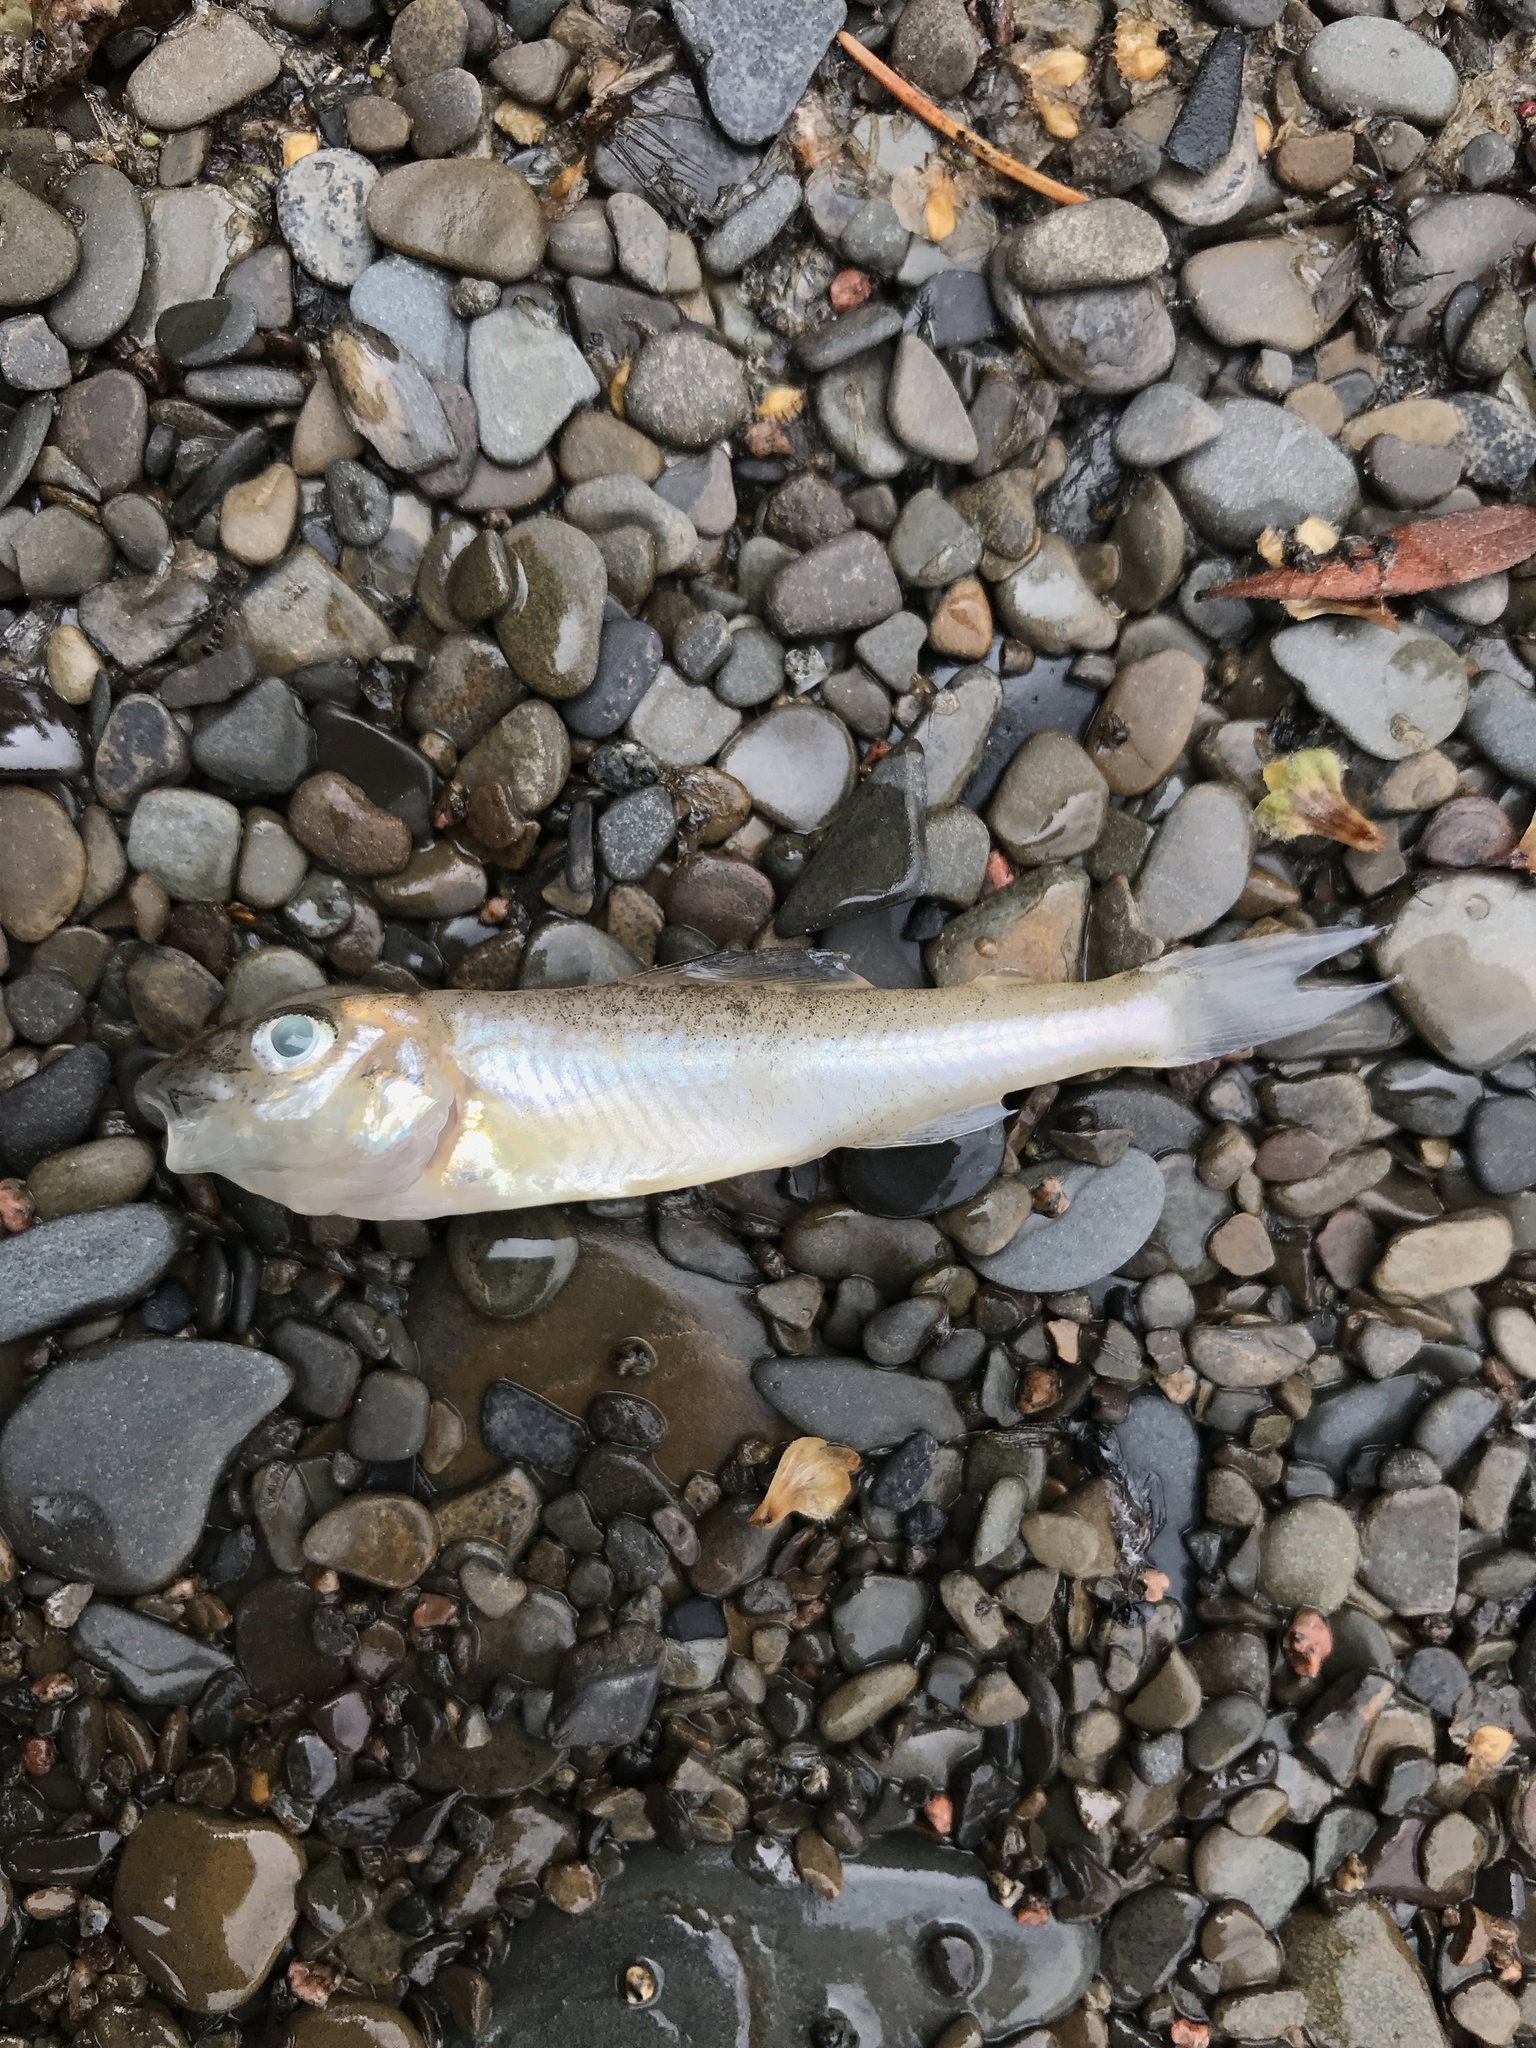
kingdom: Animalia
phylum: Chordata
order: Percopsiformes
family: Percopsidae
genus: Percopsis
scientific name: Percopsis omiscomaycus
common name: Trout-perch
